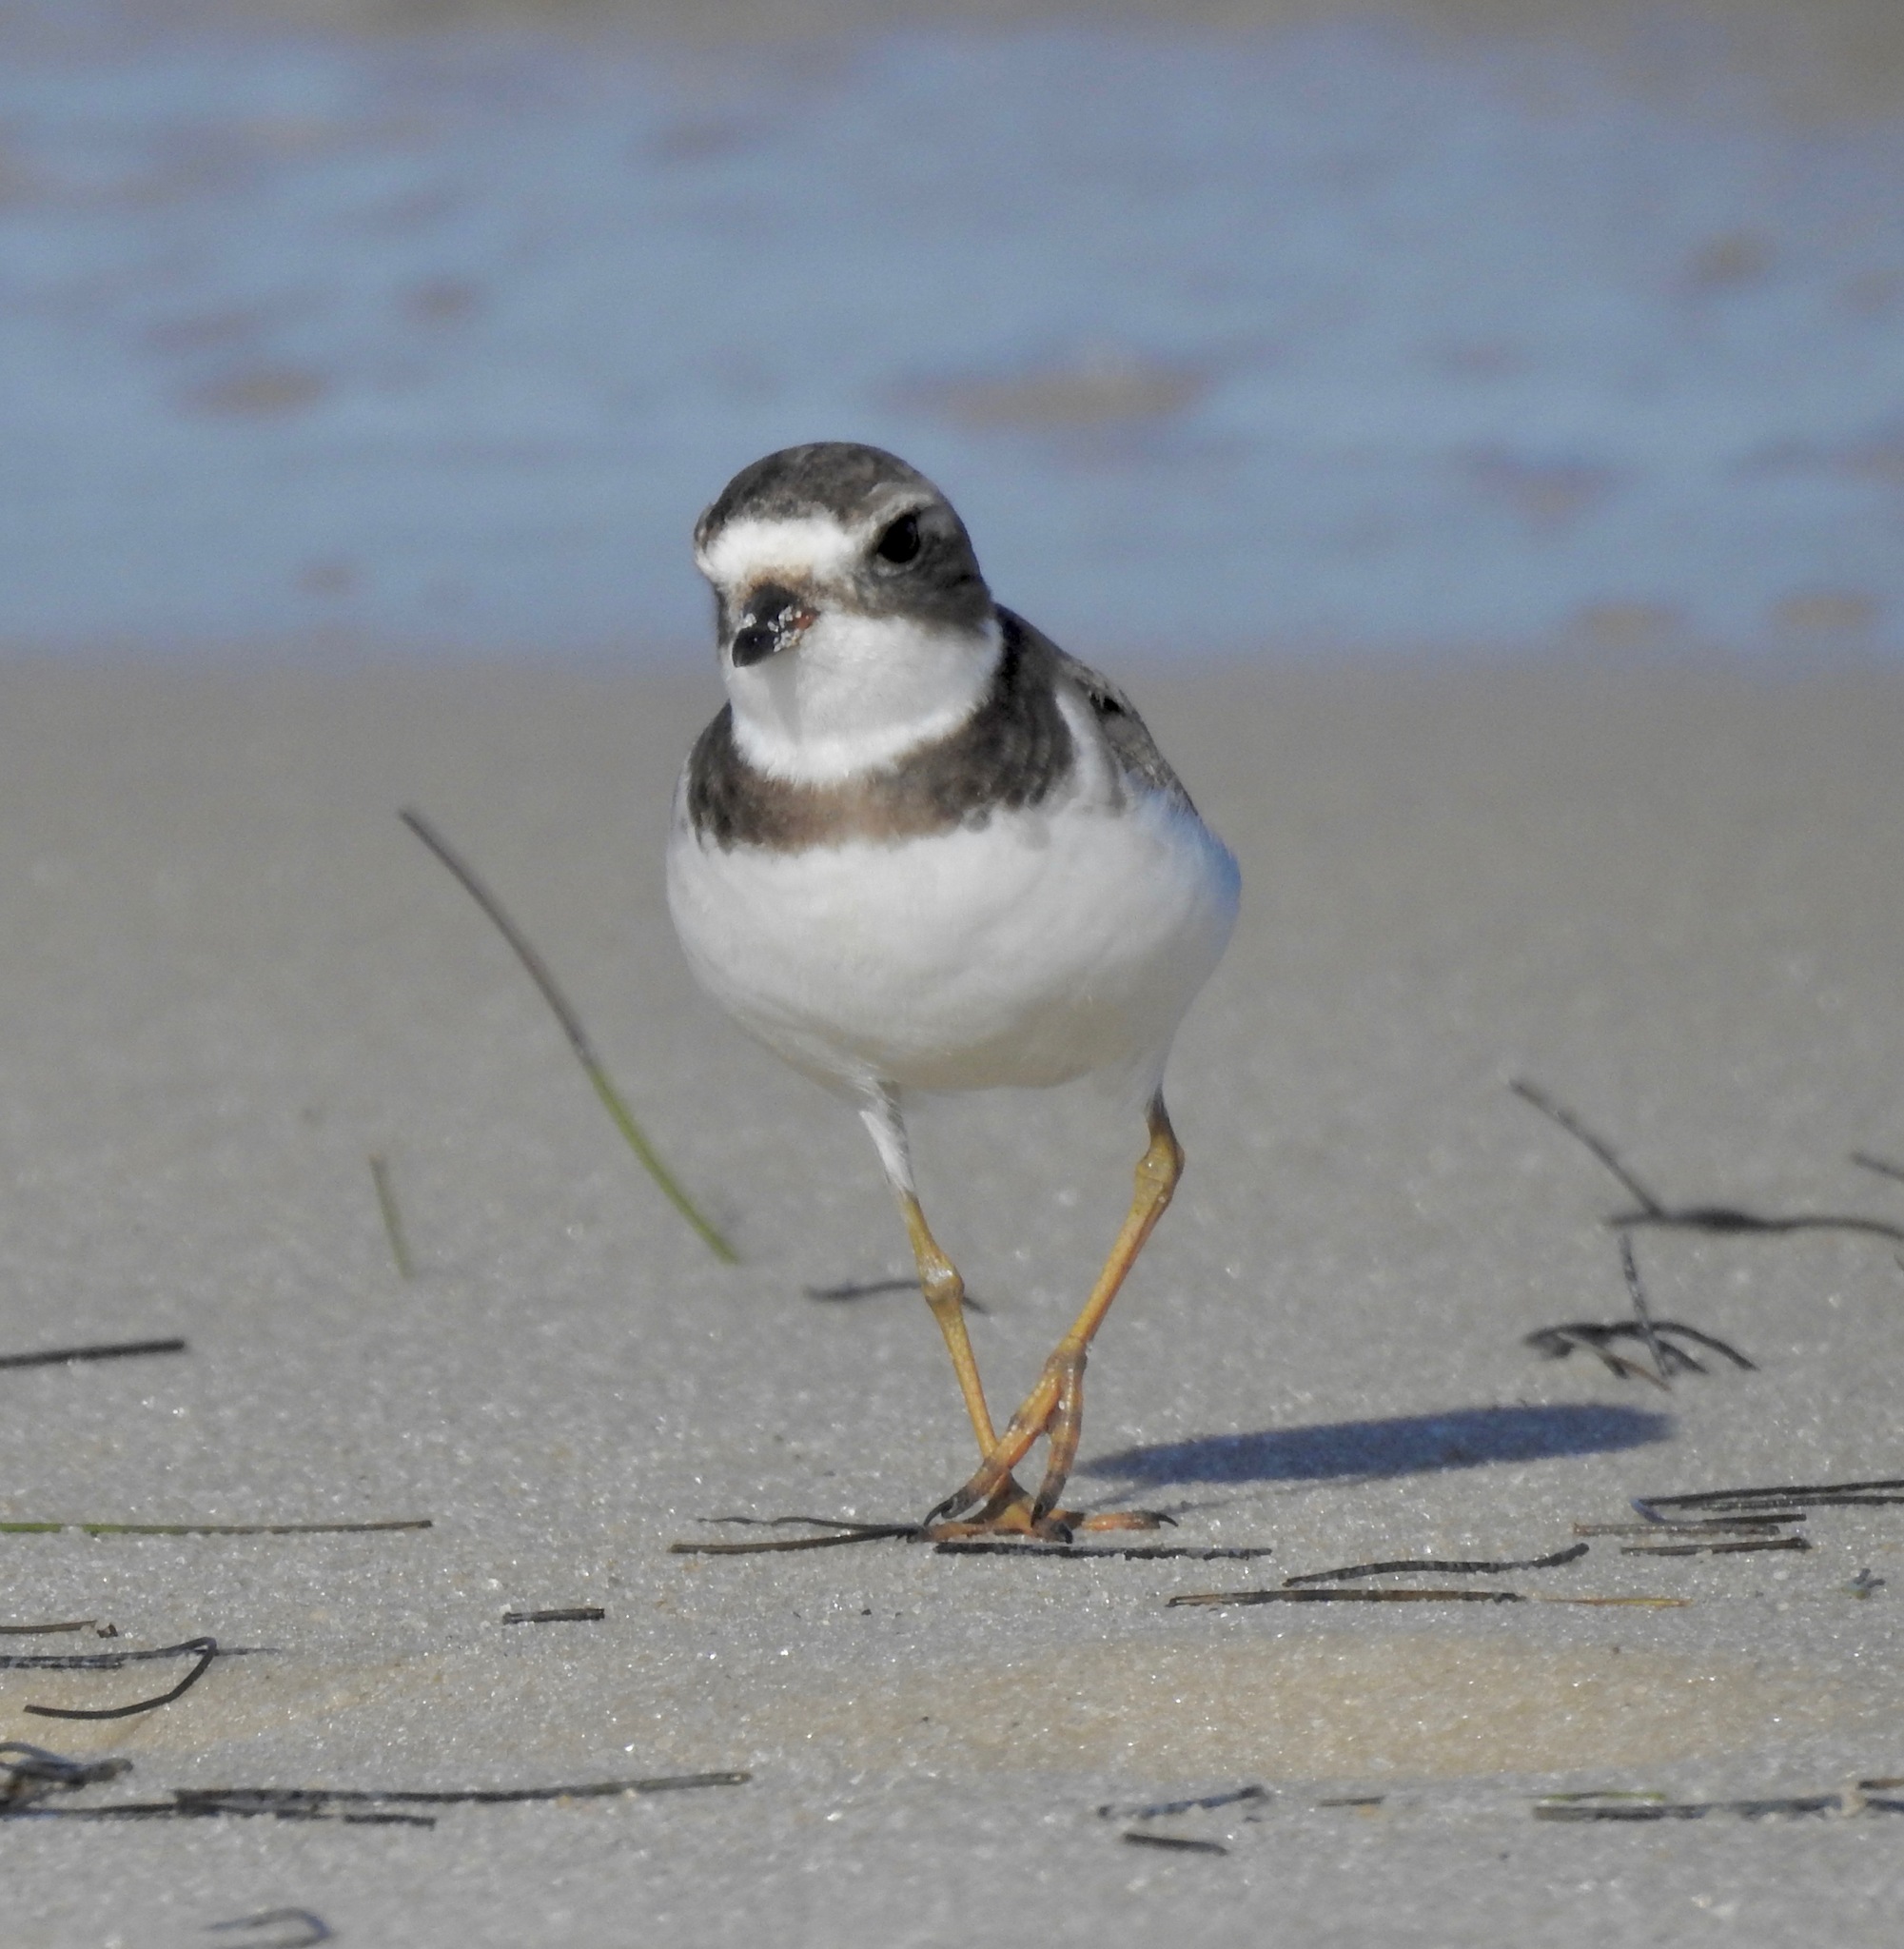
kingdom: Animalia
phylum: Chordata
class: Aves
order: Charadriiformes
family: Charadriidae
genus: Charadrius
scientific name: Charadrius semipalmatus
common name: Semipalmated plover
